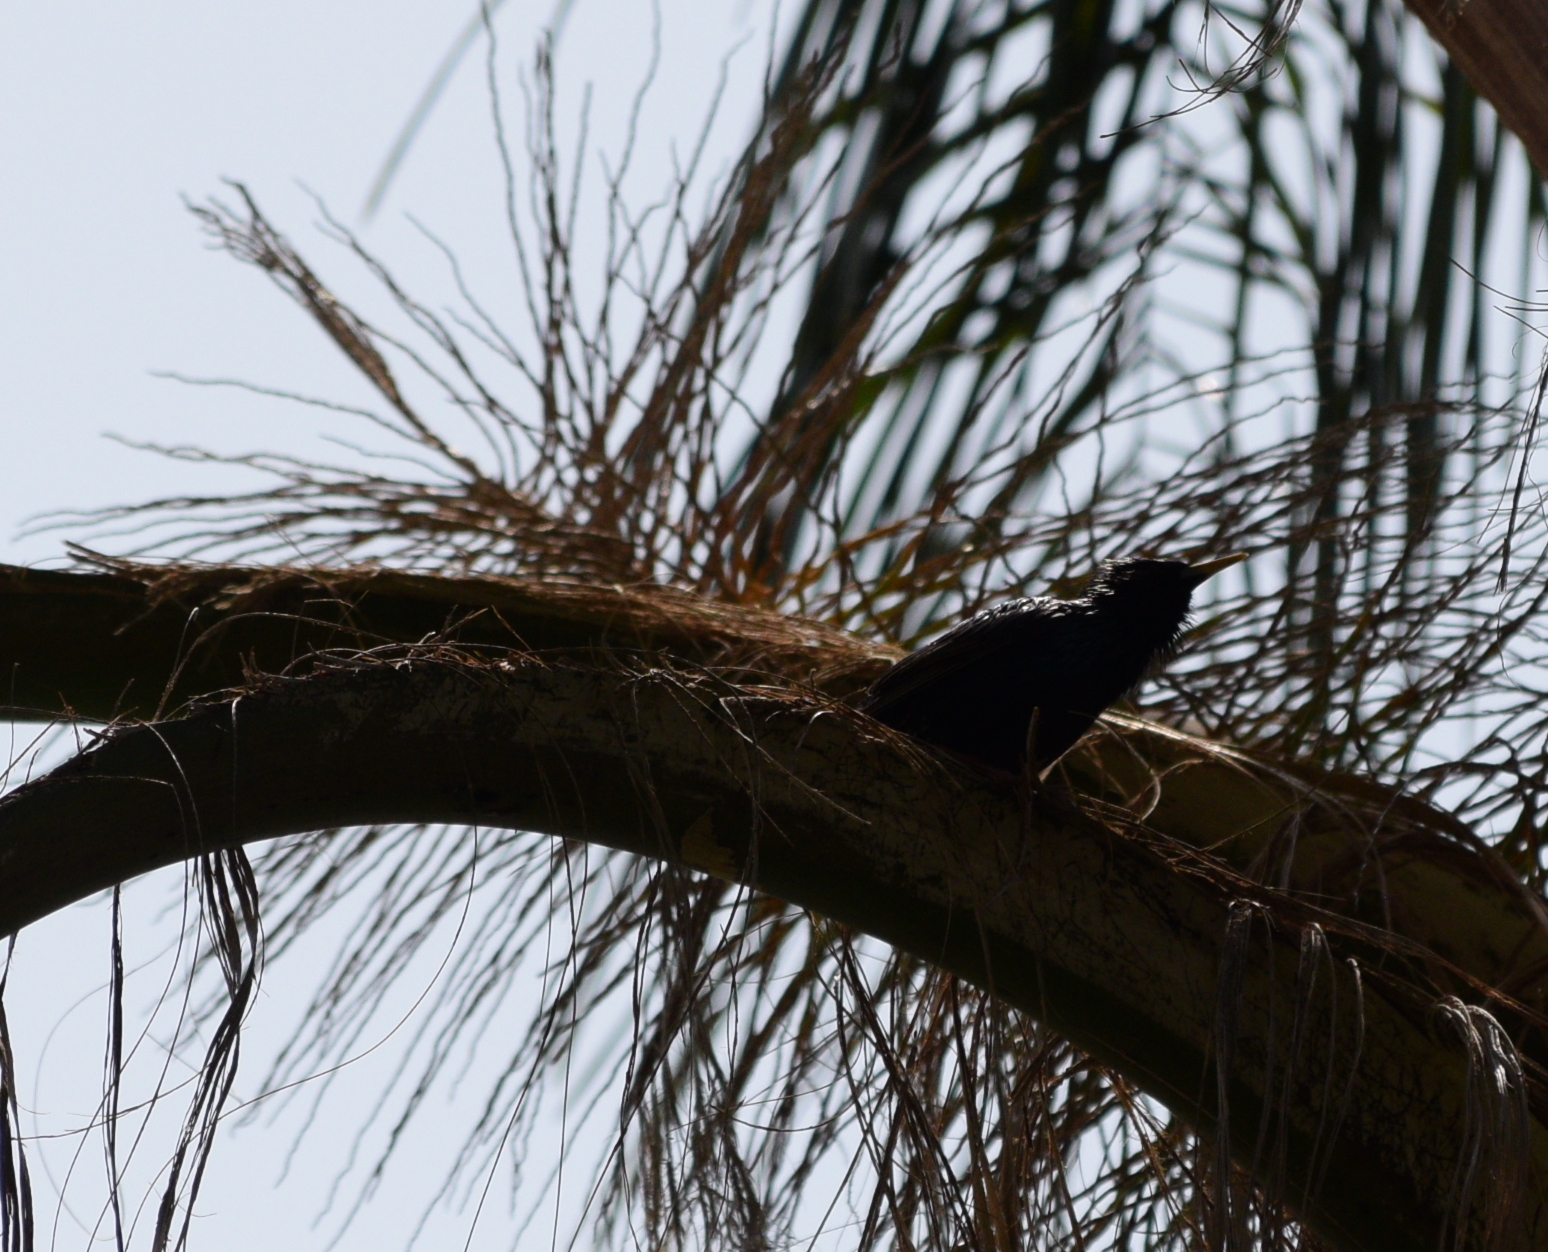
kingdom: Animalia
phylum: Chordata
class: Aves
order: Passeriformes
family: Sturnidae
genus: Sturnus
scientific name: Sturnus vulgaris
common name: Common starling
